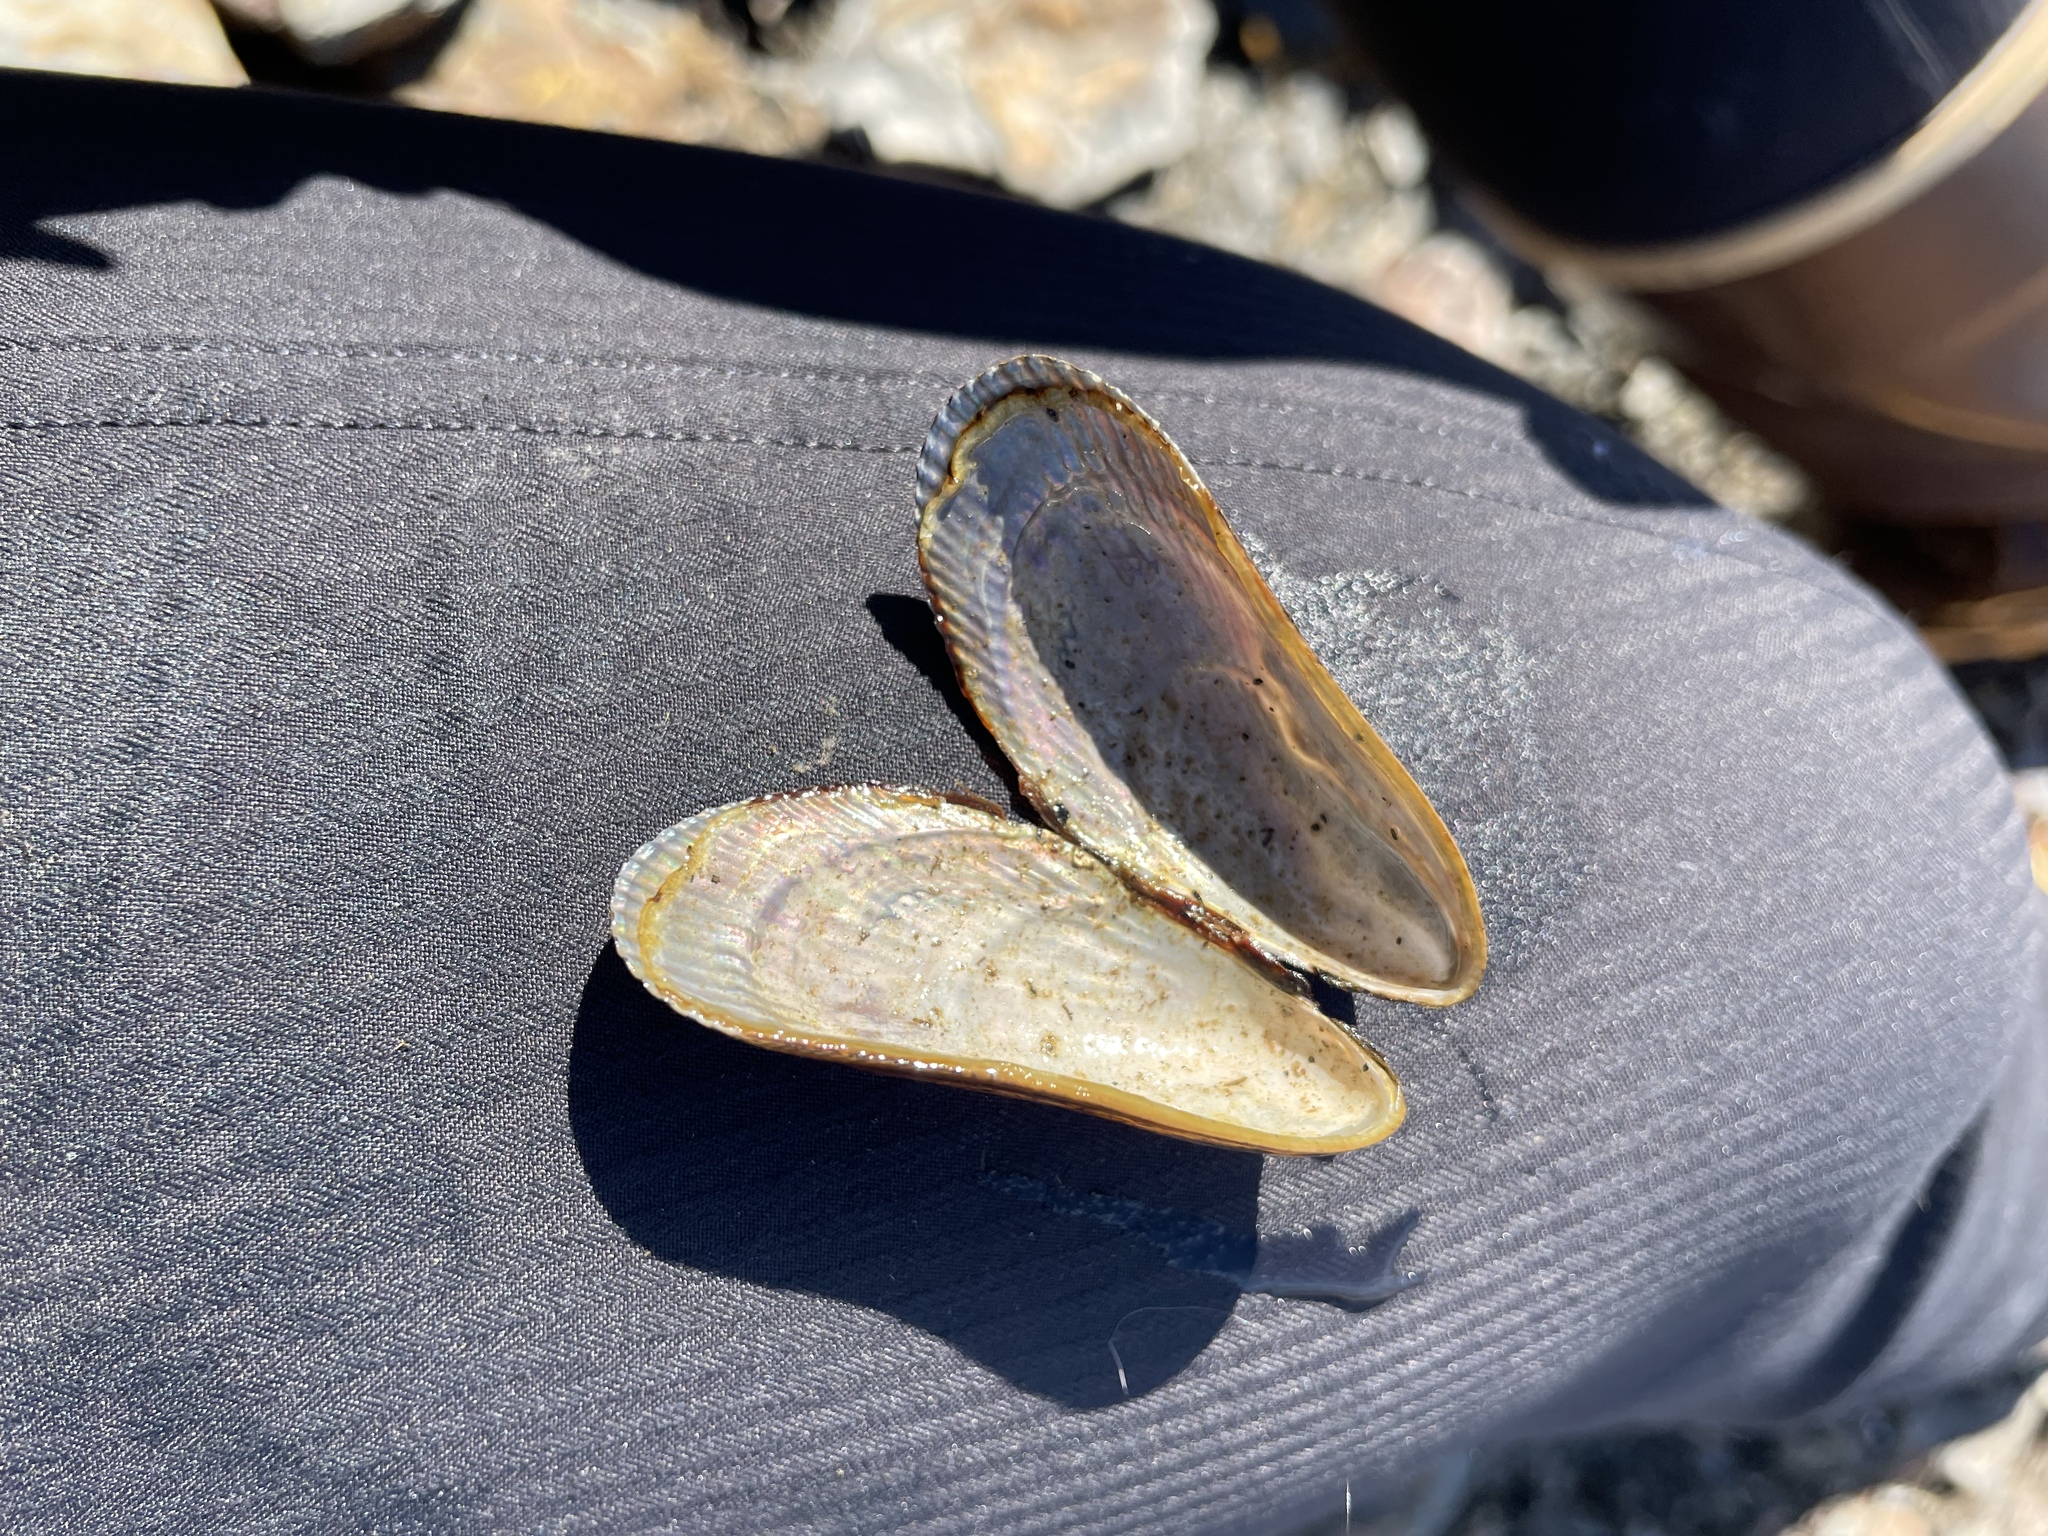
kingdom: Animalia
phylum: Mollusca
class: Bivalvia
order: Mytilida
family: Mytilidae
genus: Geukensia
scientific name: Geukensia demissa
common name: Ribbed mussel
